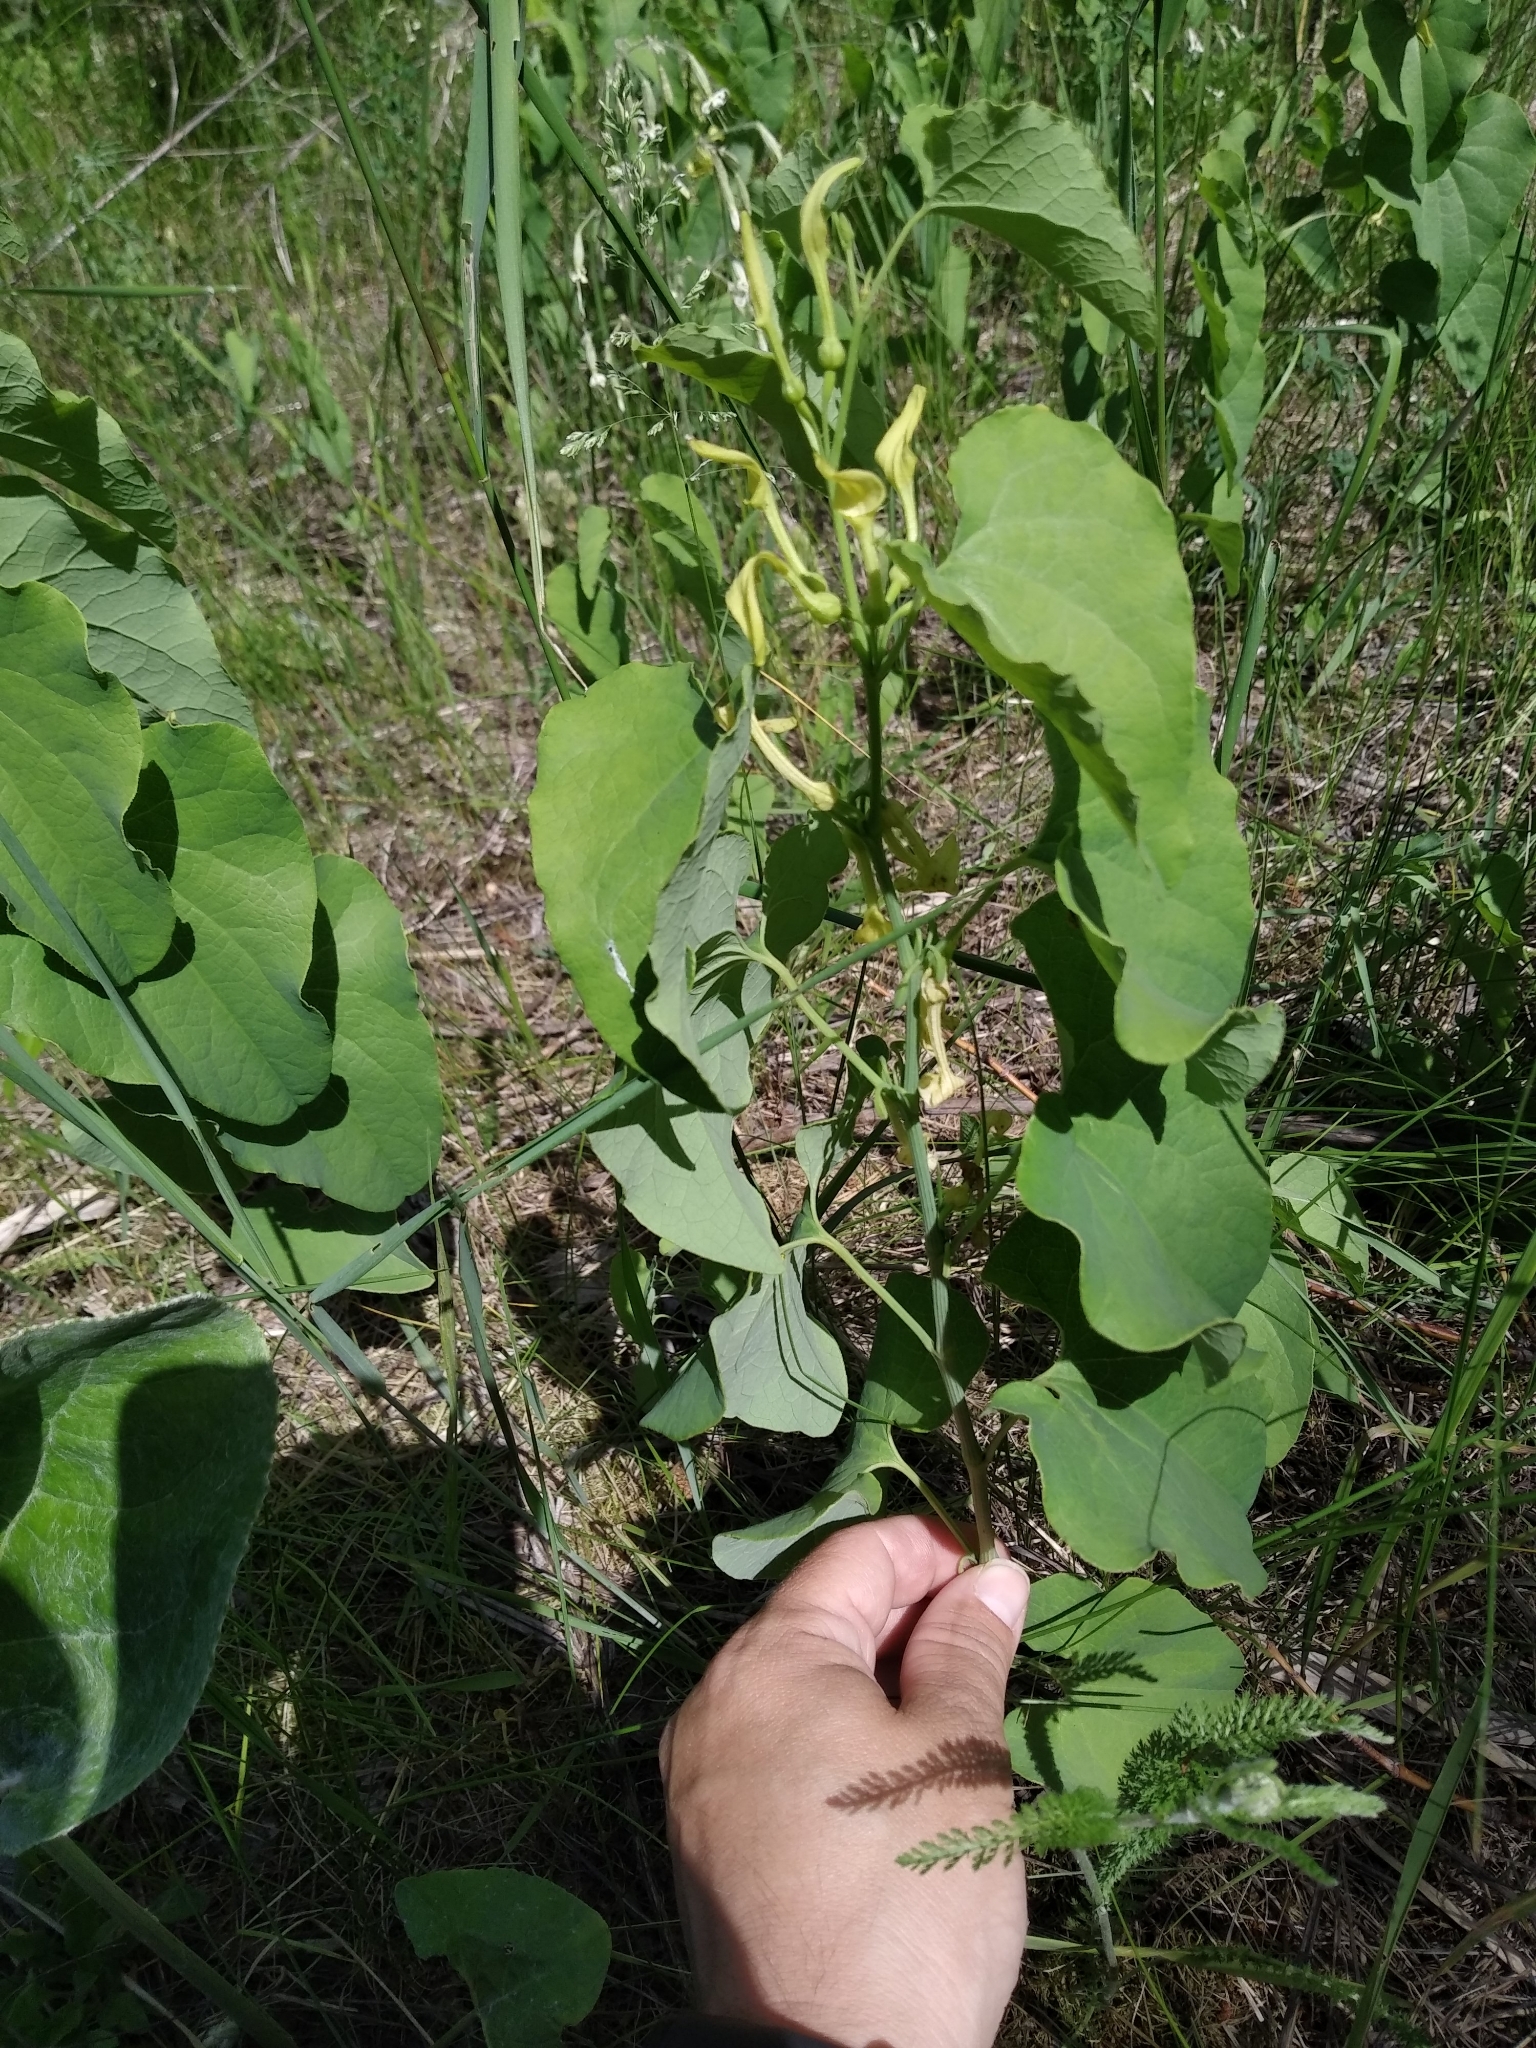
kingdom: Plantae
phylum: Tracheophyta
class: Magnoliopsida
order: Piperales
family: Aristolochiaceae
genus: Aristolochia
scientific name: Aristolochia clematitis
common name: Birthwort
